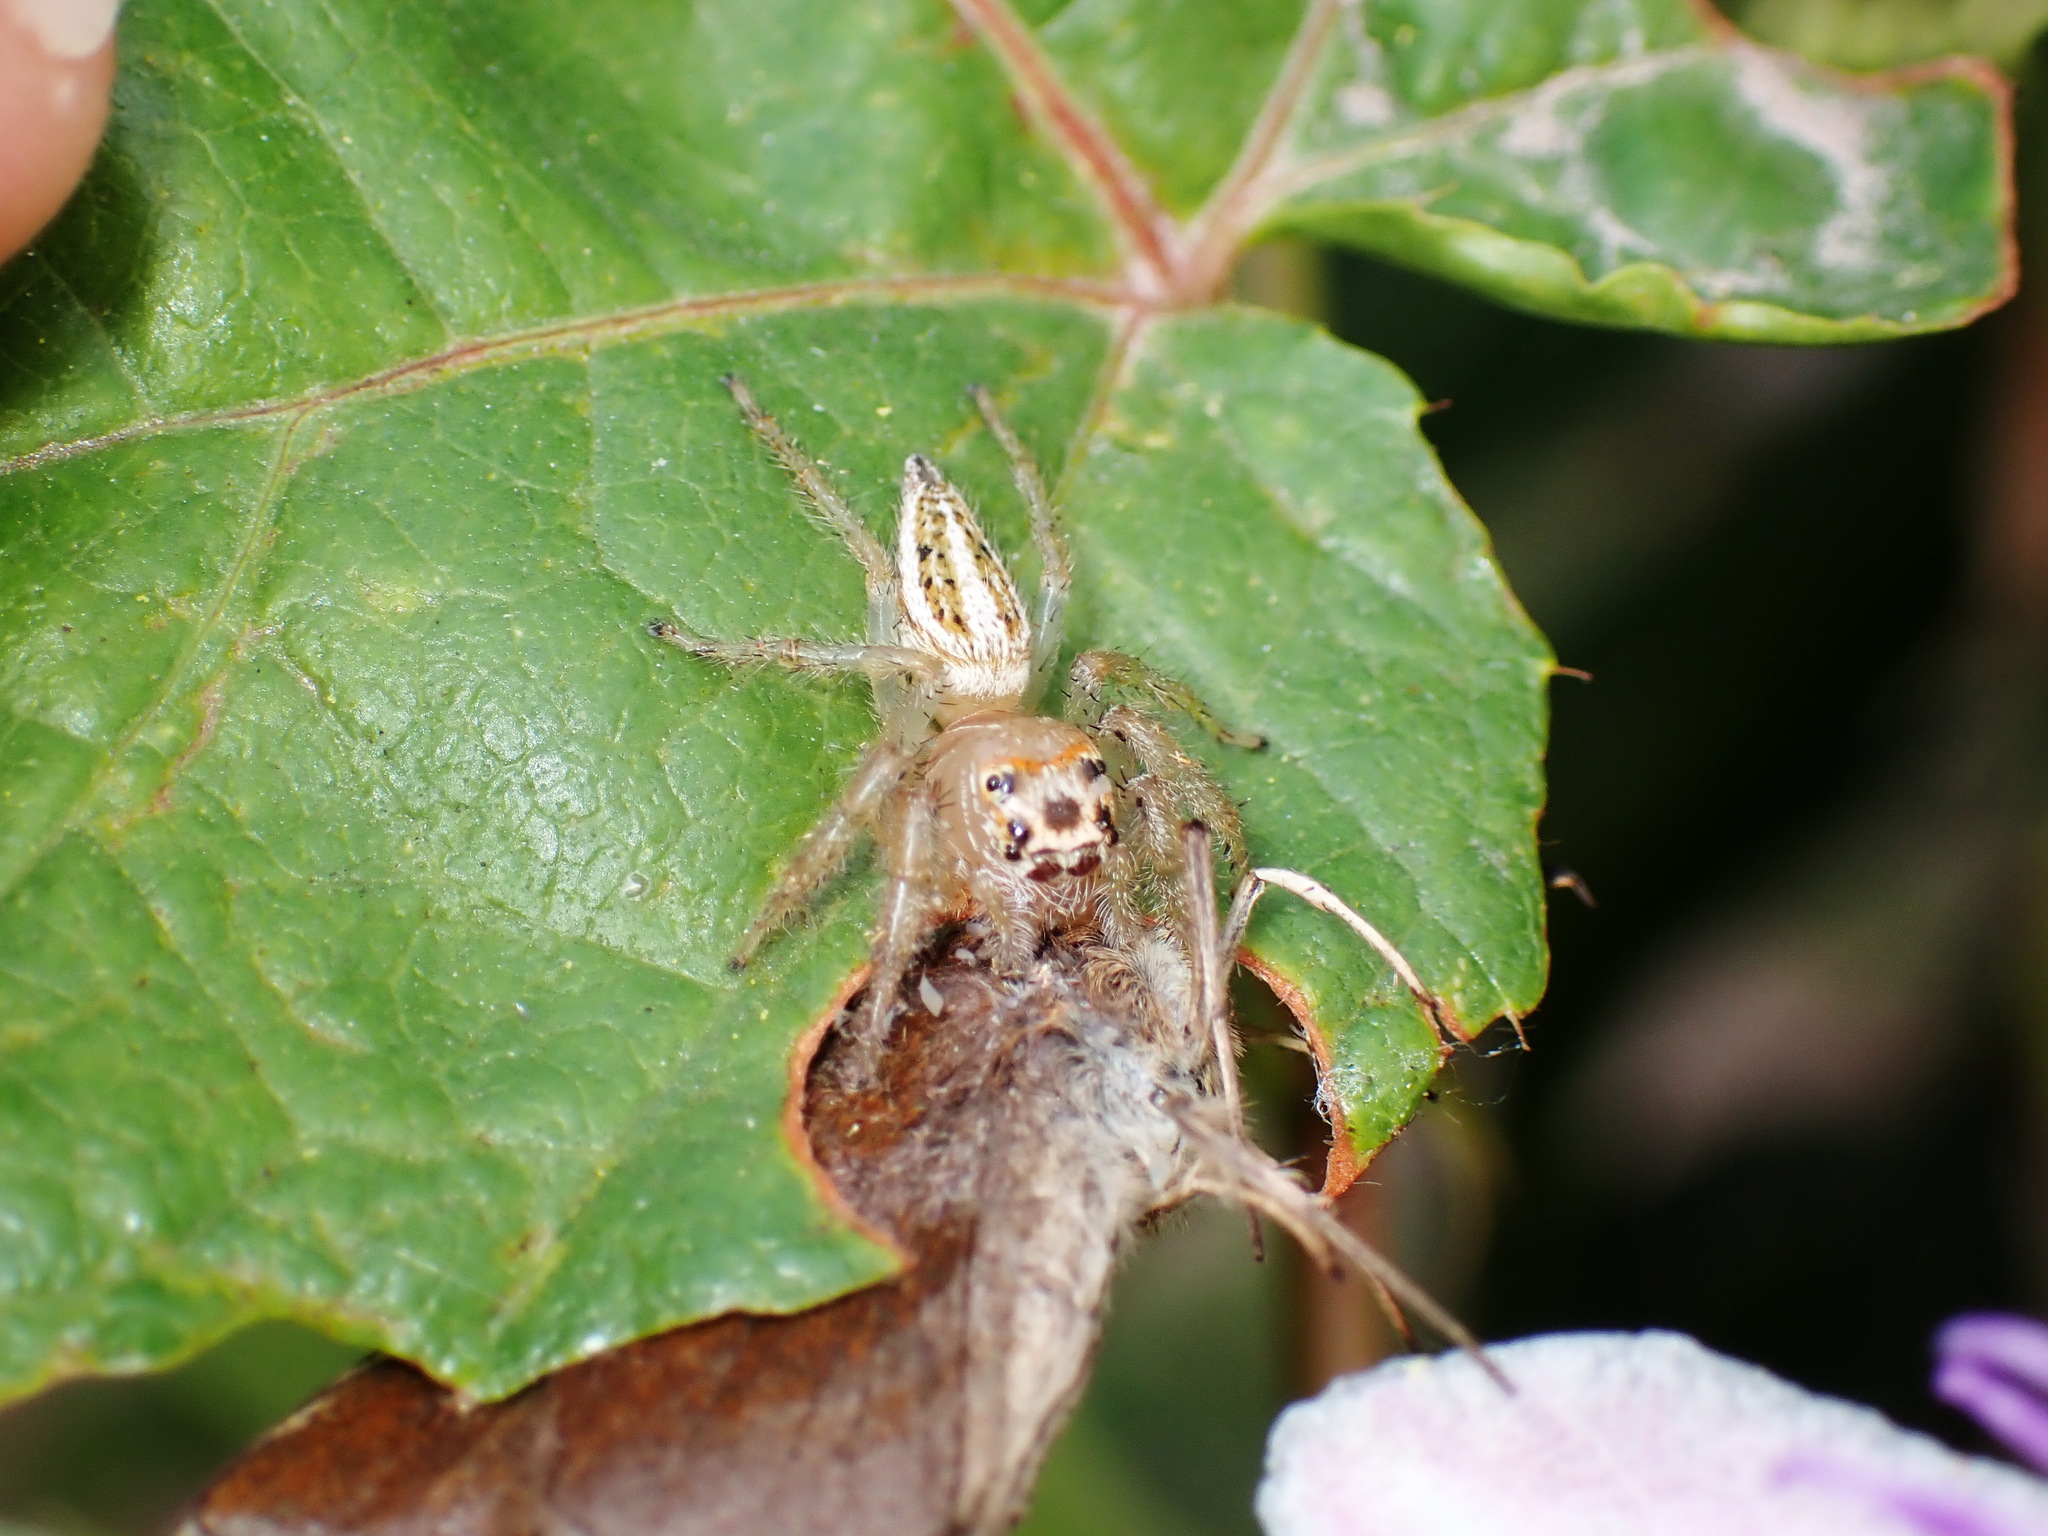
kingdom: Animalia
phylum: Arthropoda
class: Arachnida
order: Araneae
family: Salticidae
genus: Colonus
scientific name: Colonus sylvanus
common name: Jumping spiders
